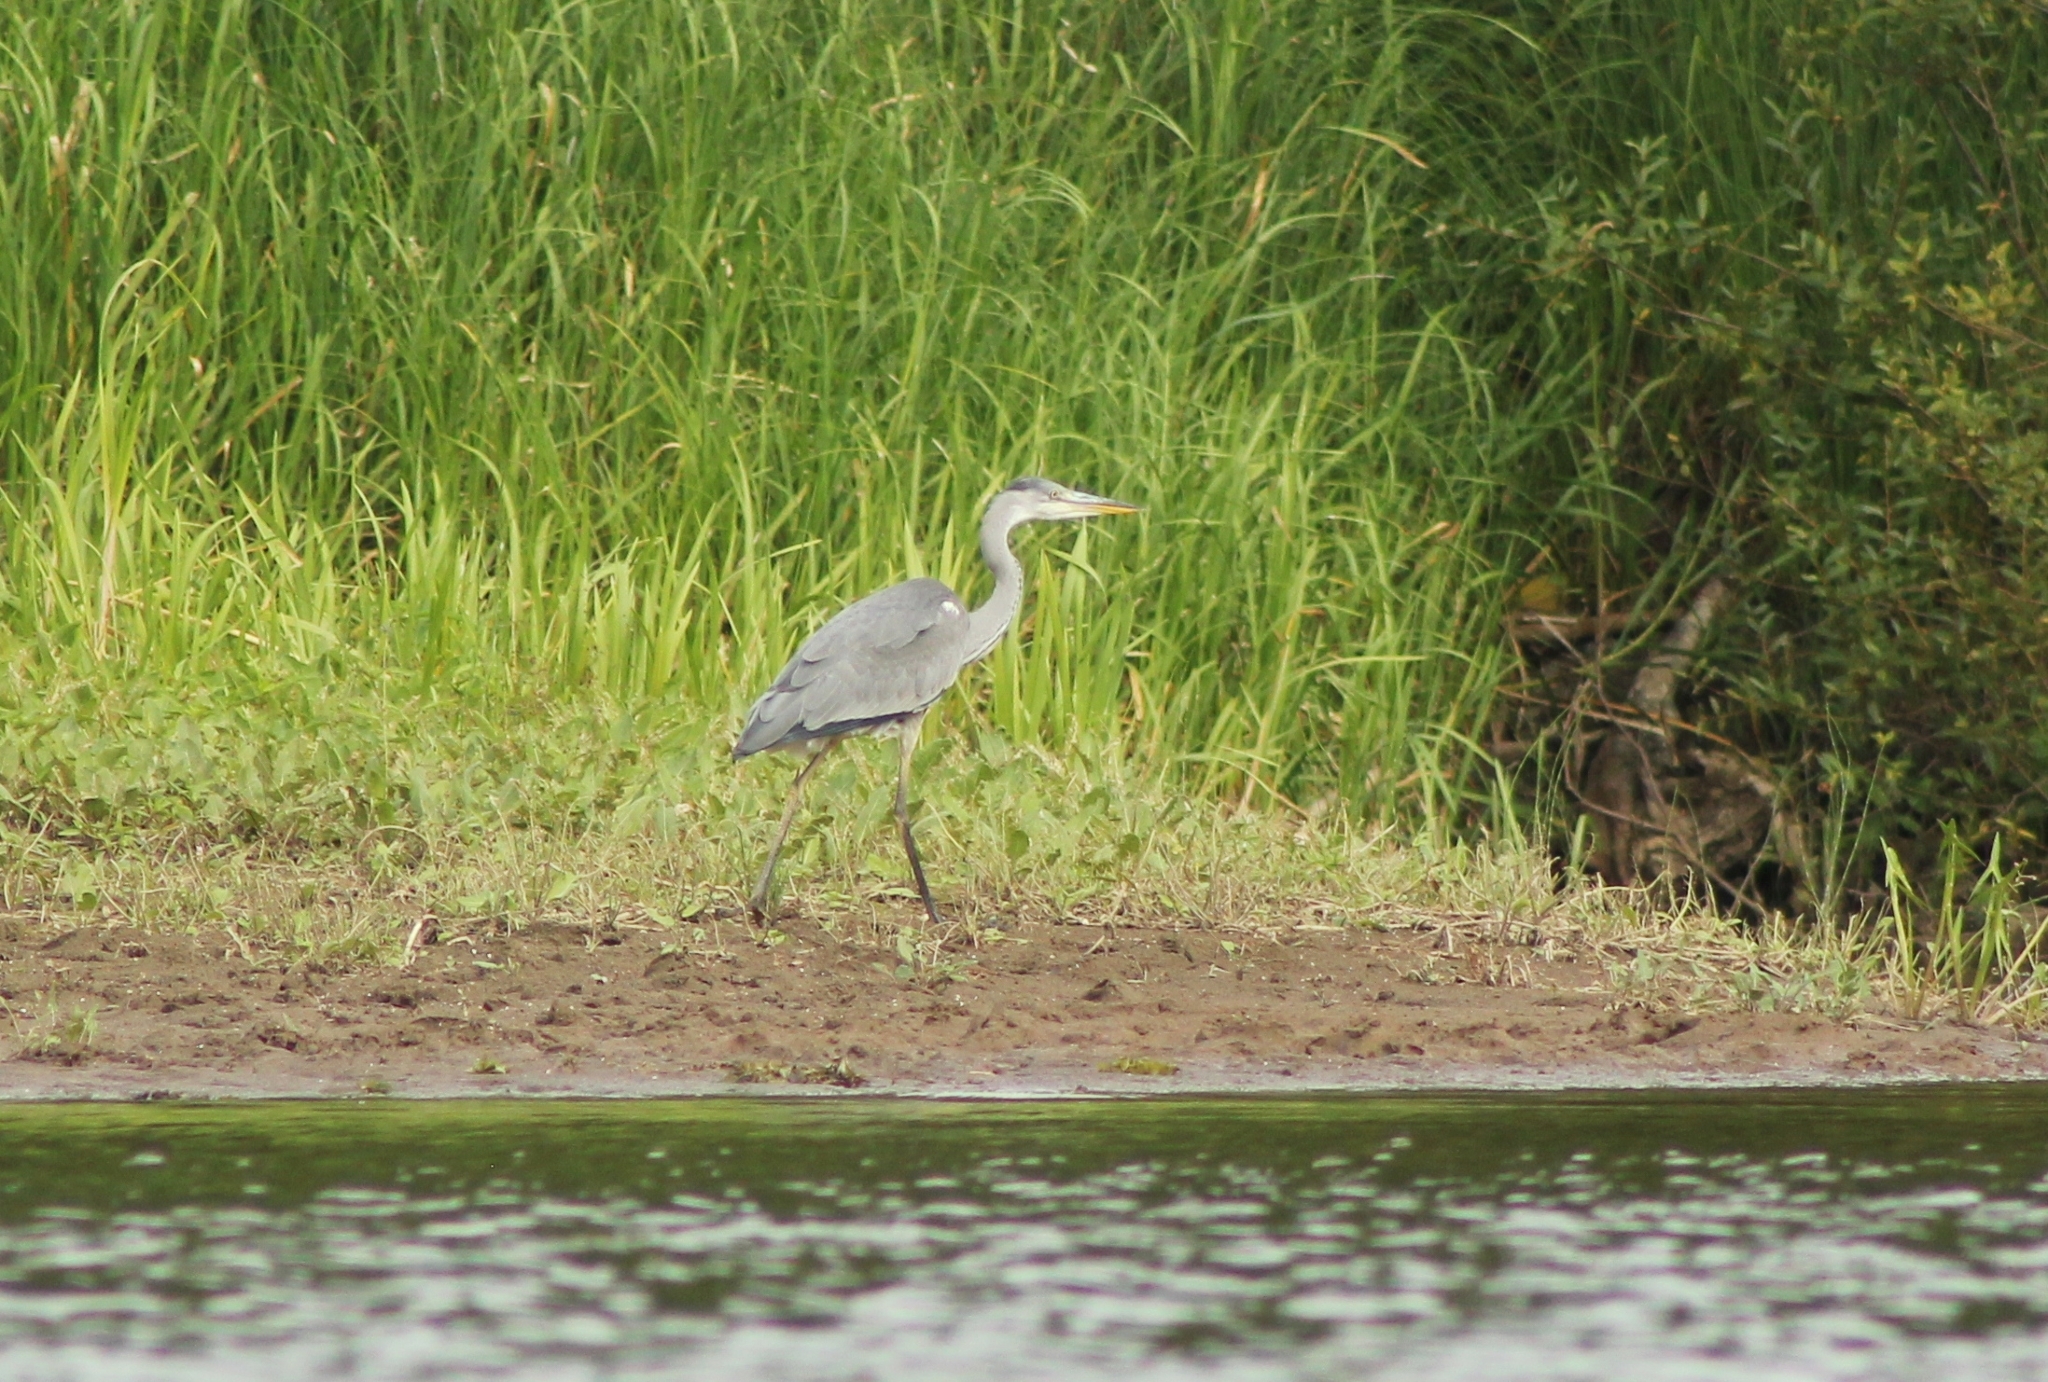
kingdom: Animalia
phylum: Chordata
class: Aves
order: Pelecaniformes
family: Ardeidae
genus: Ardea
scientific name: Ardea cinerea
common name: Grey heron
